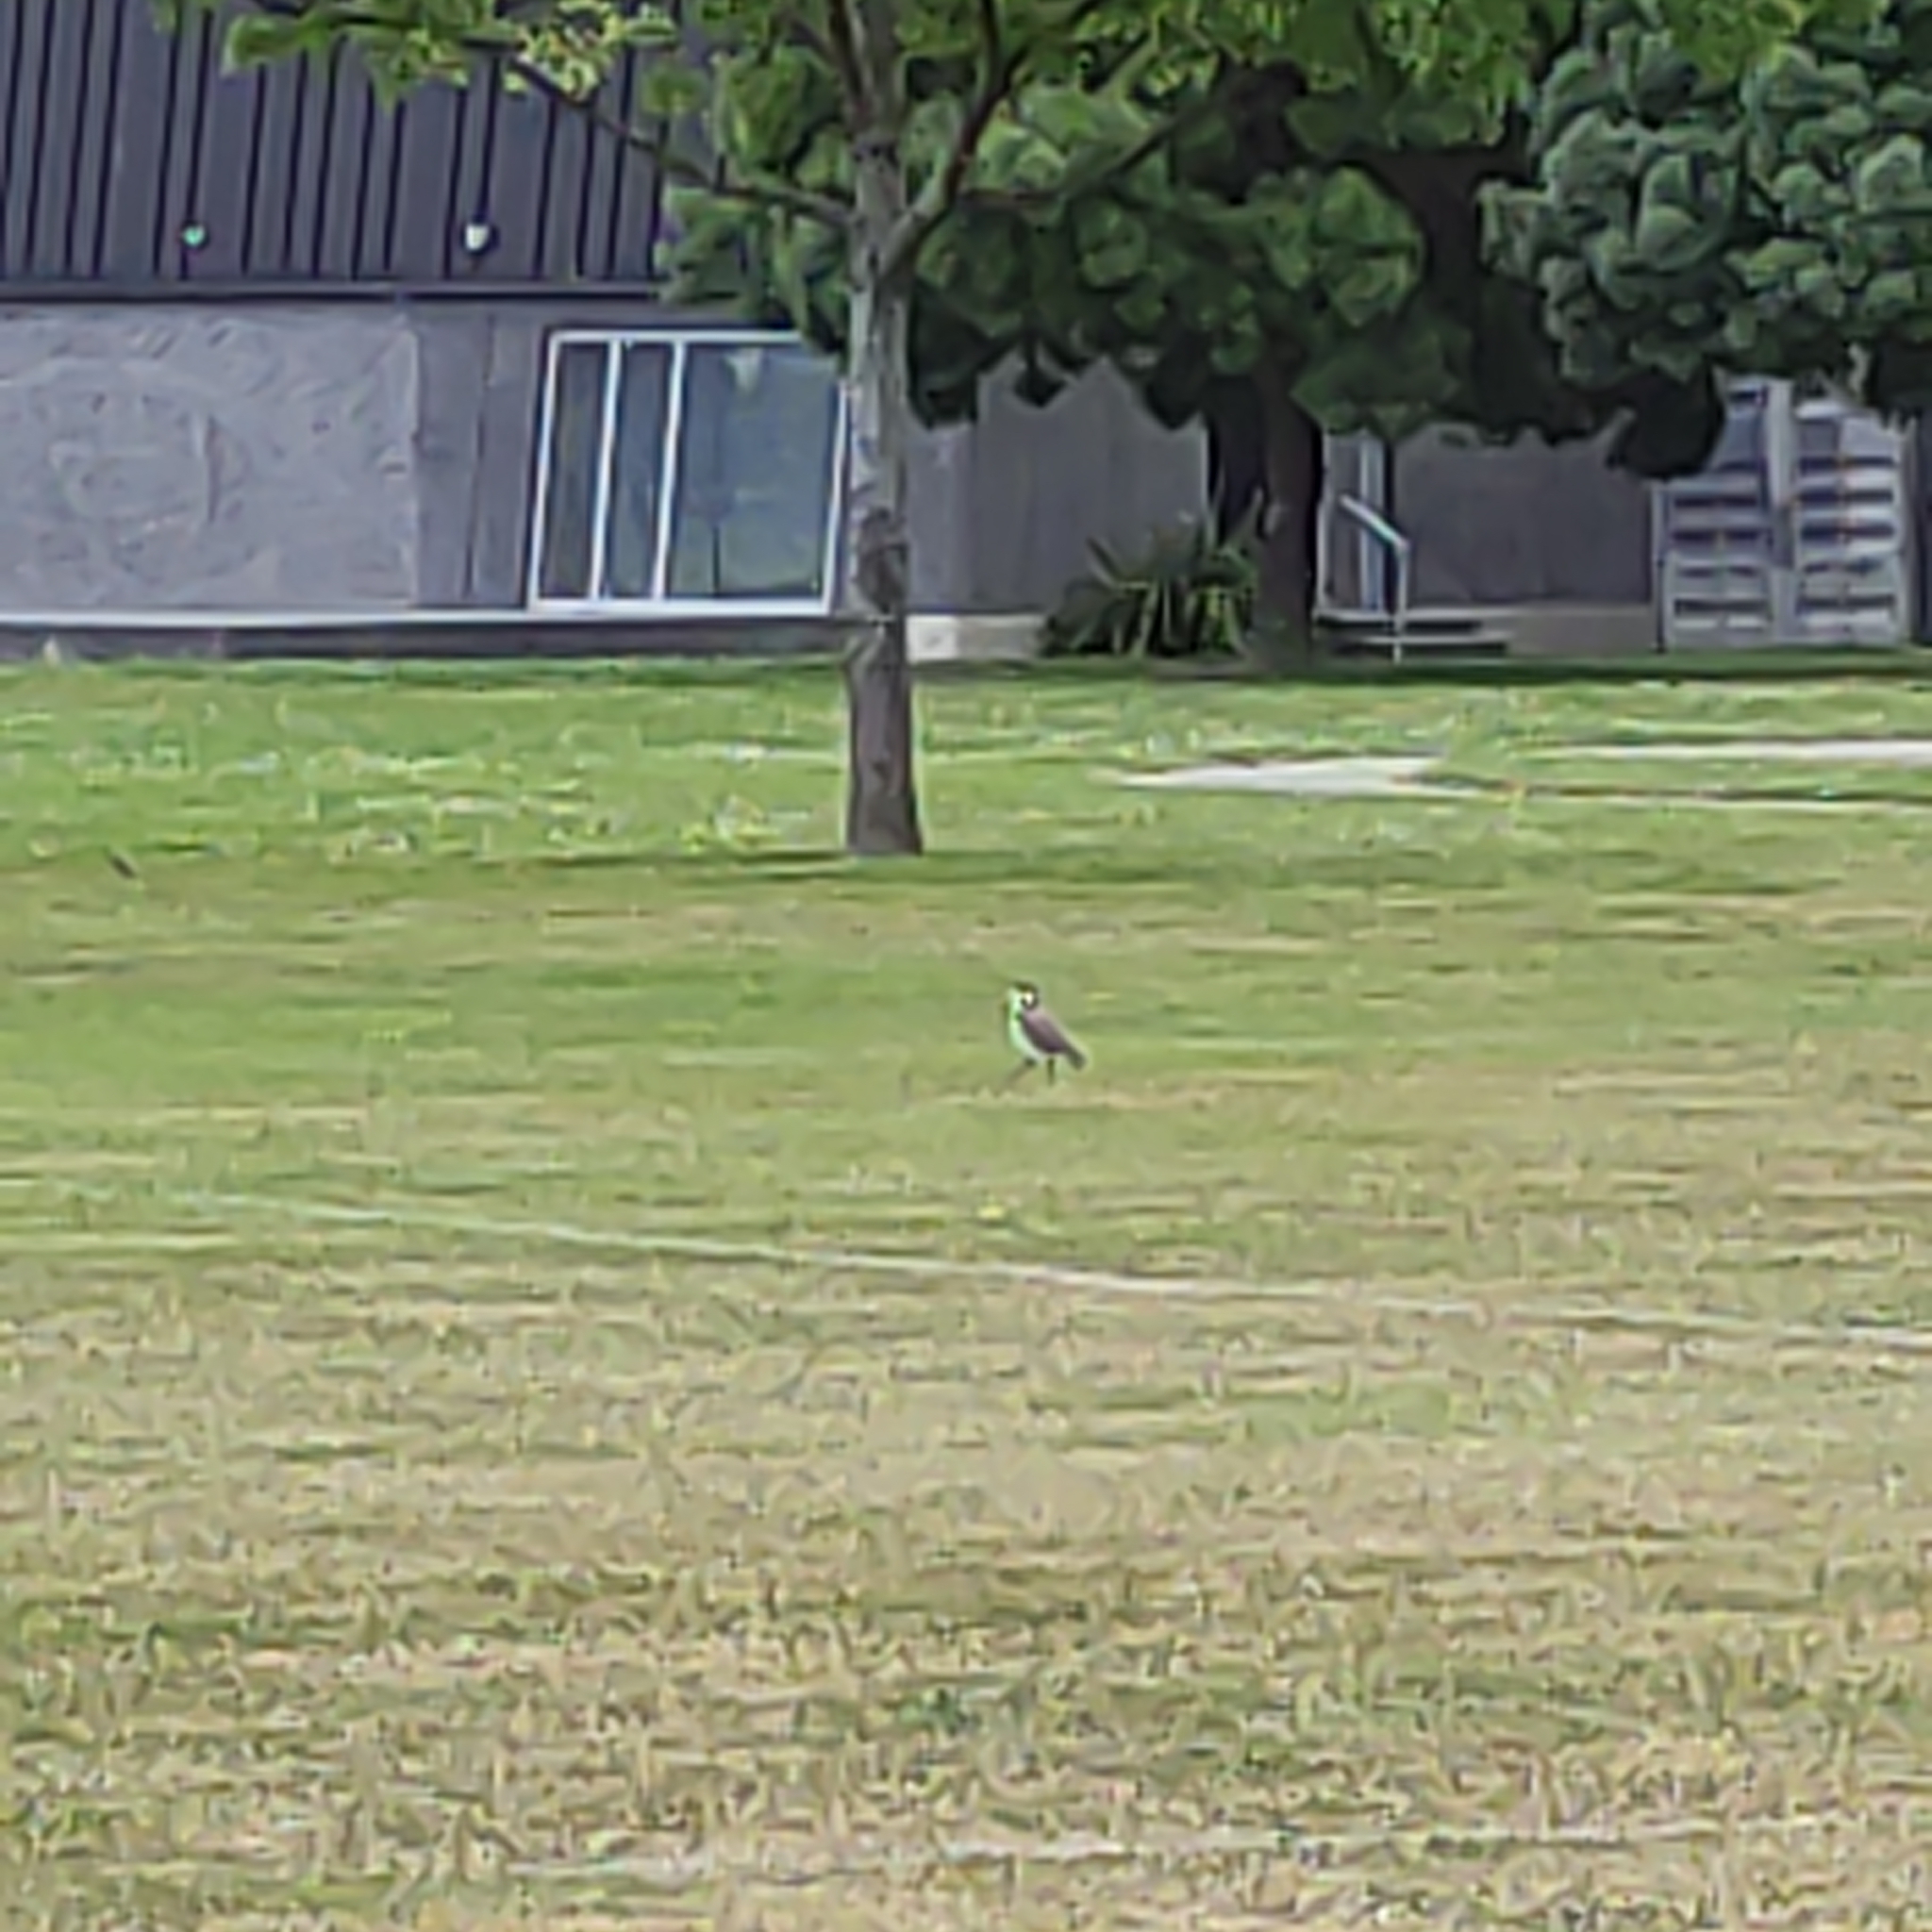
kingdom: Animalia
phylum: Chordata
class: Aves
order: Charadriiformes
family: Charadriidae
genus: Vanellus
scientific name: Vanellus miles
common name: Masked lapwing
